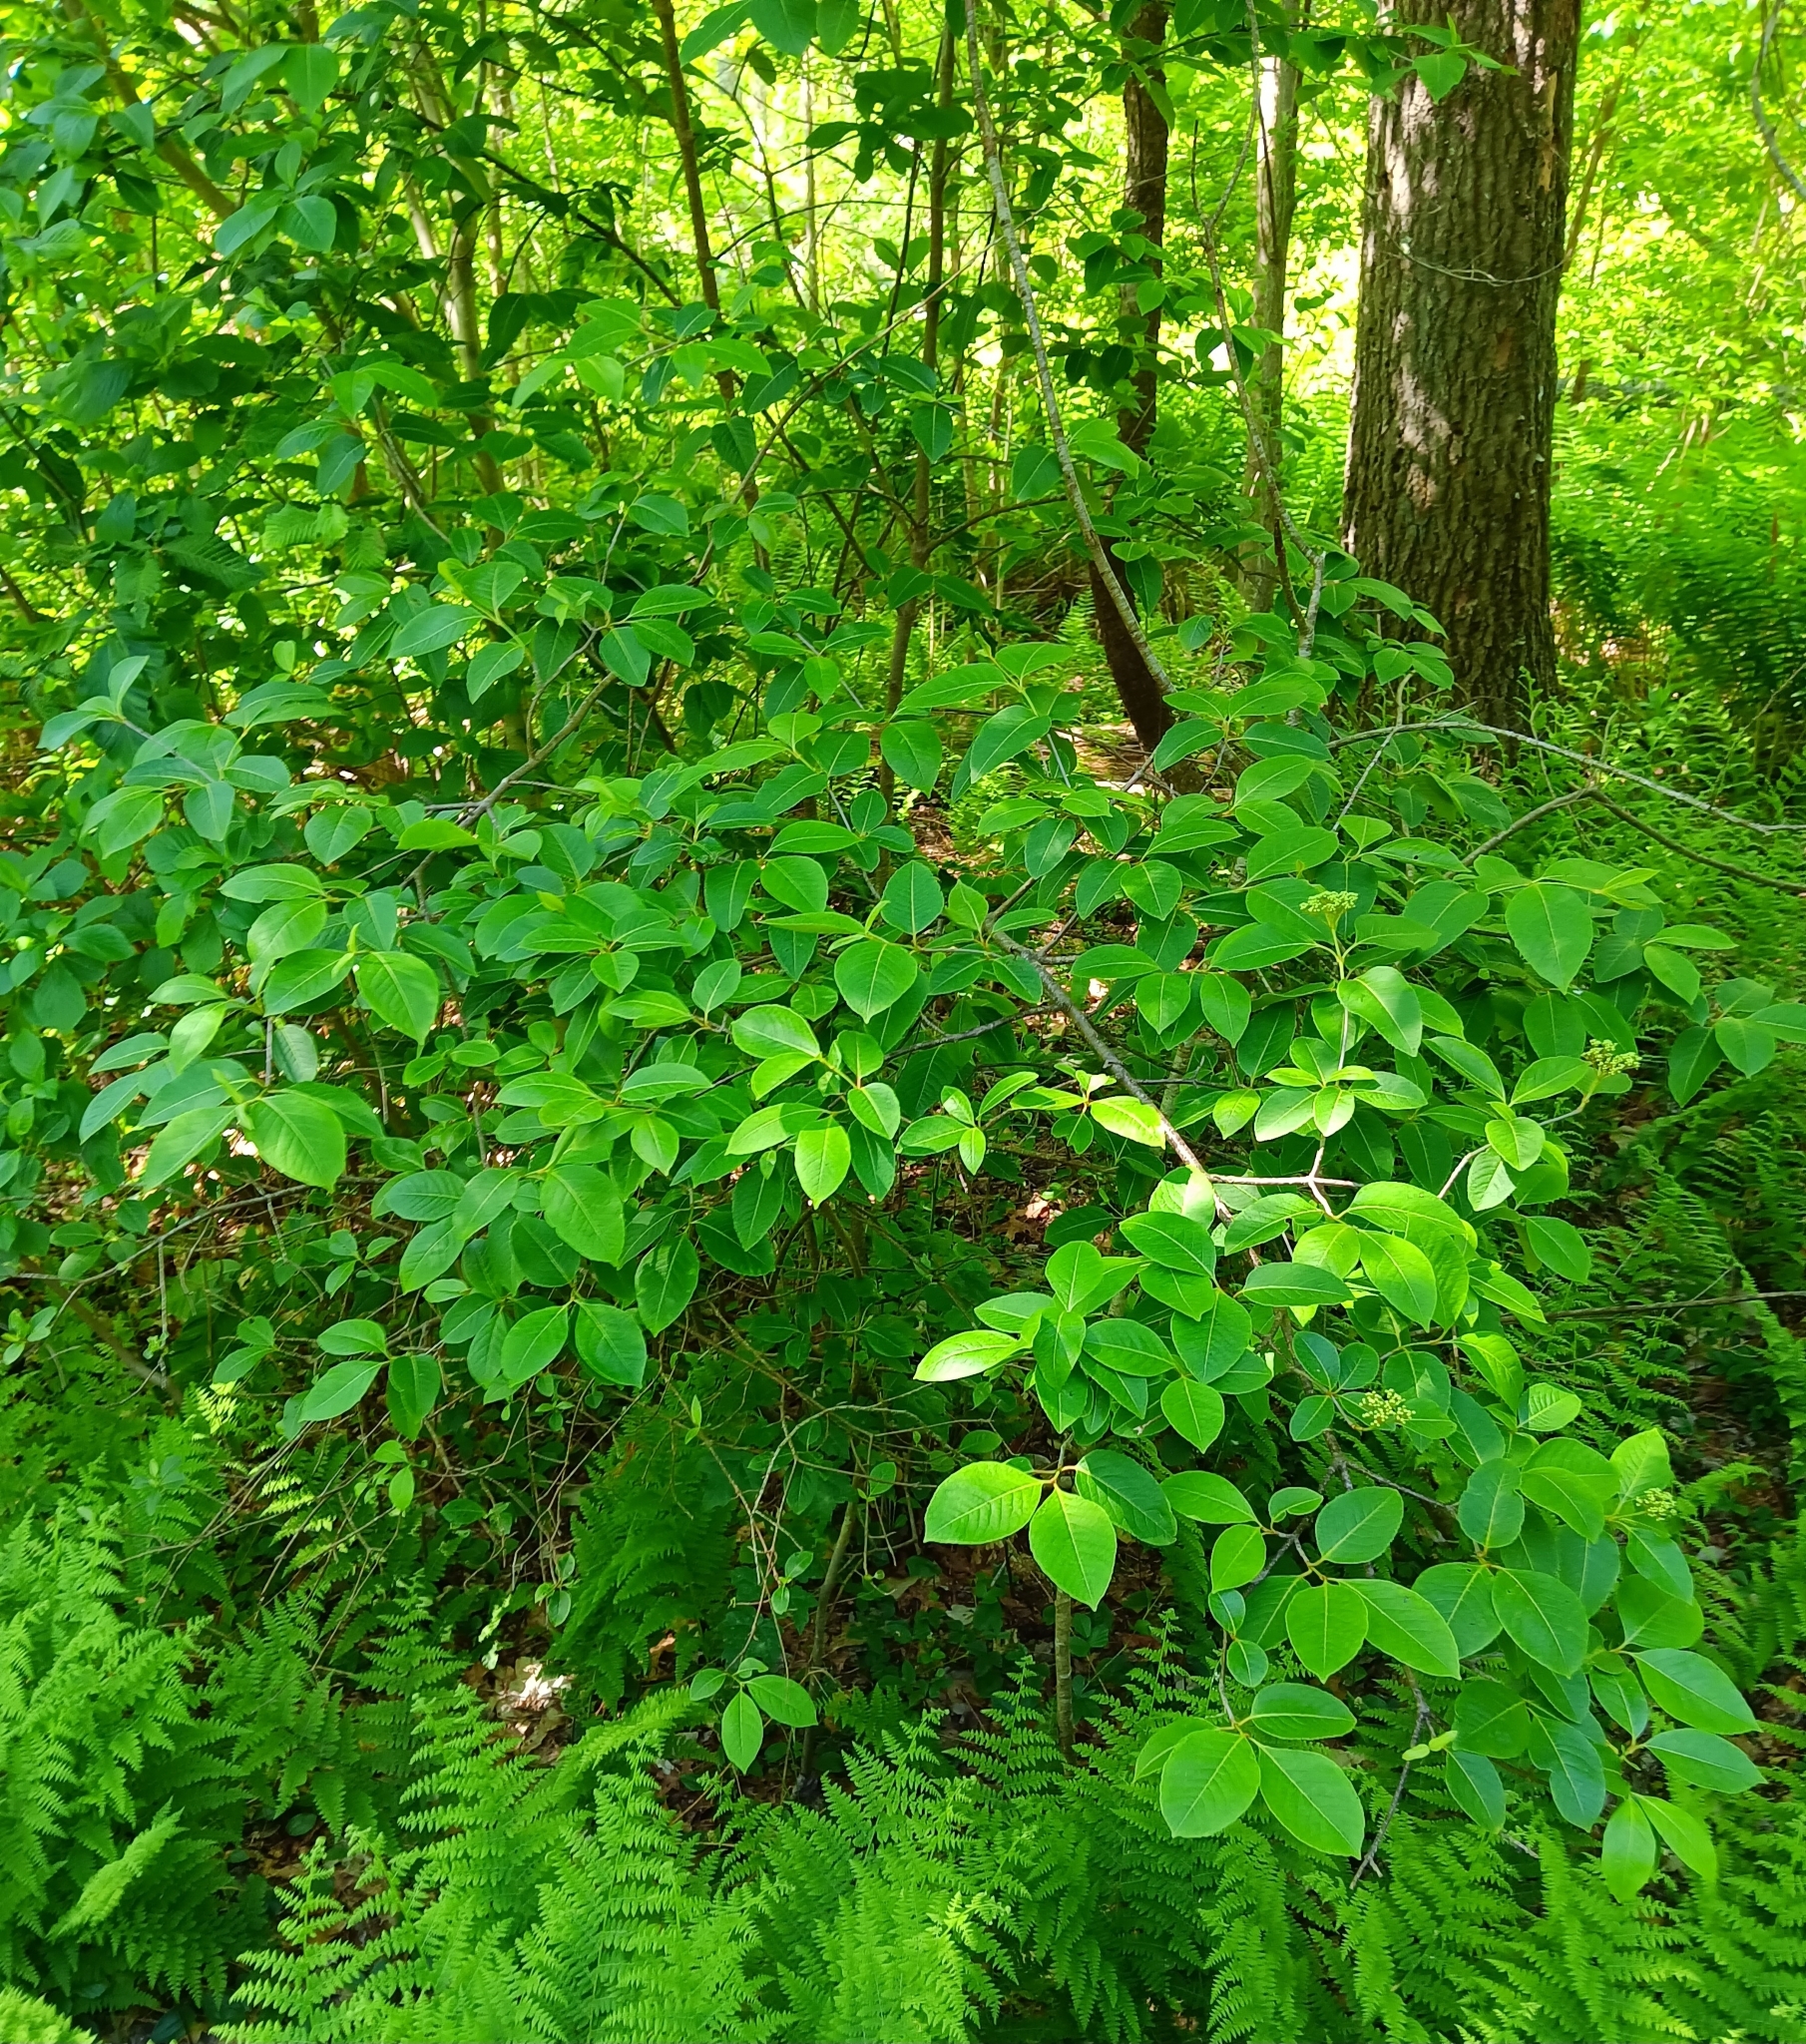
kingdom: Plantae
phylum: Tracheophyta
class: Magnoliopsida
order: Dipsacales
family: Viburnaceae
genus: Viburnum
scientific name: Viburnum cassinoides
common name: Swamp haw
